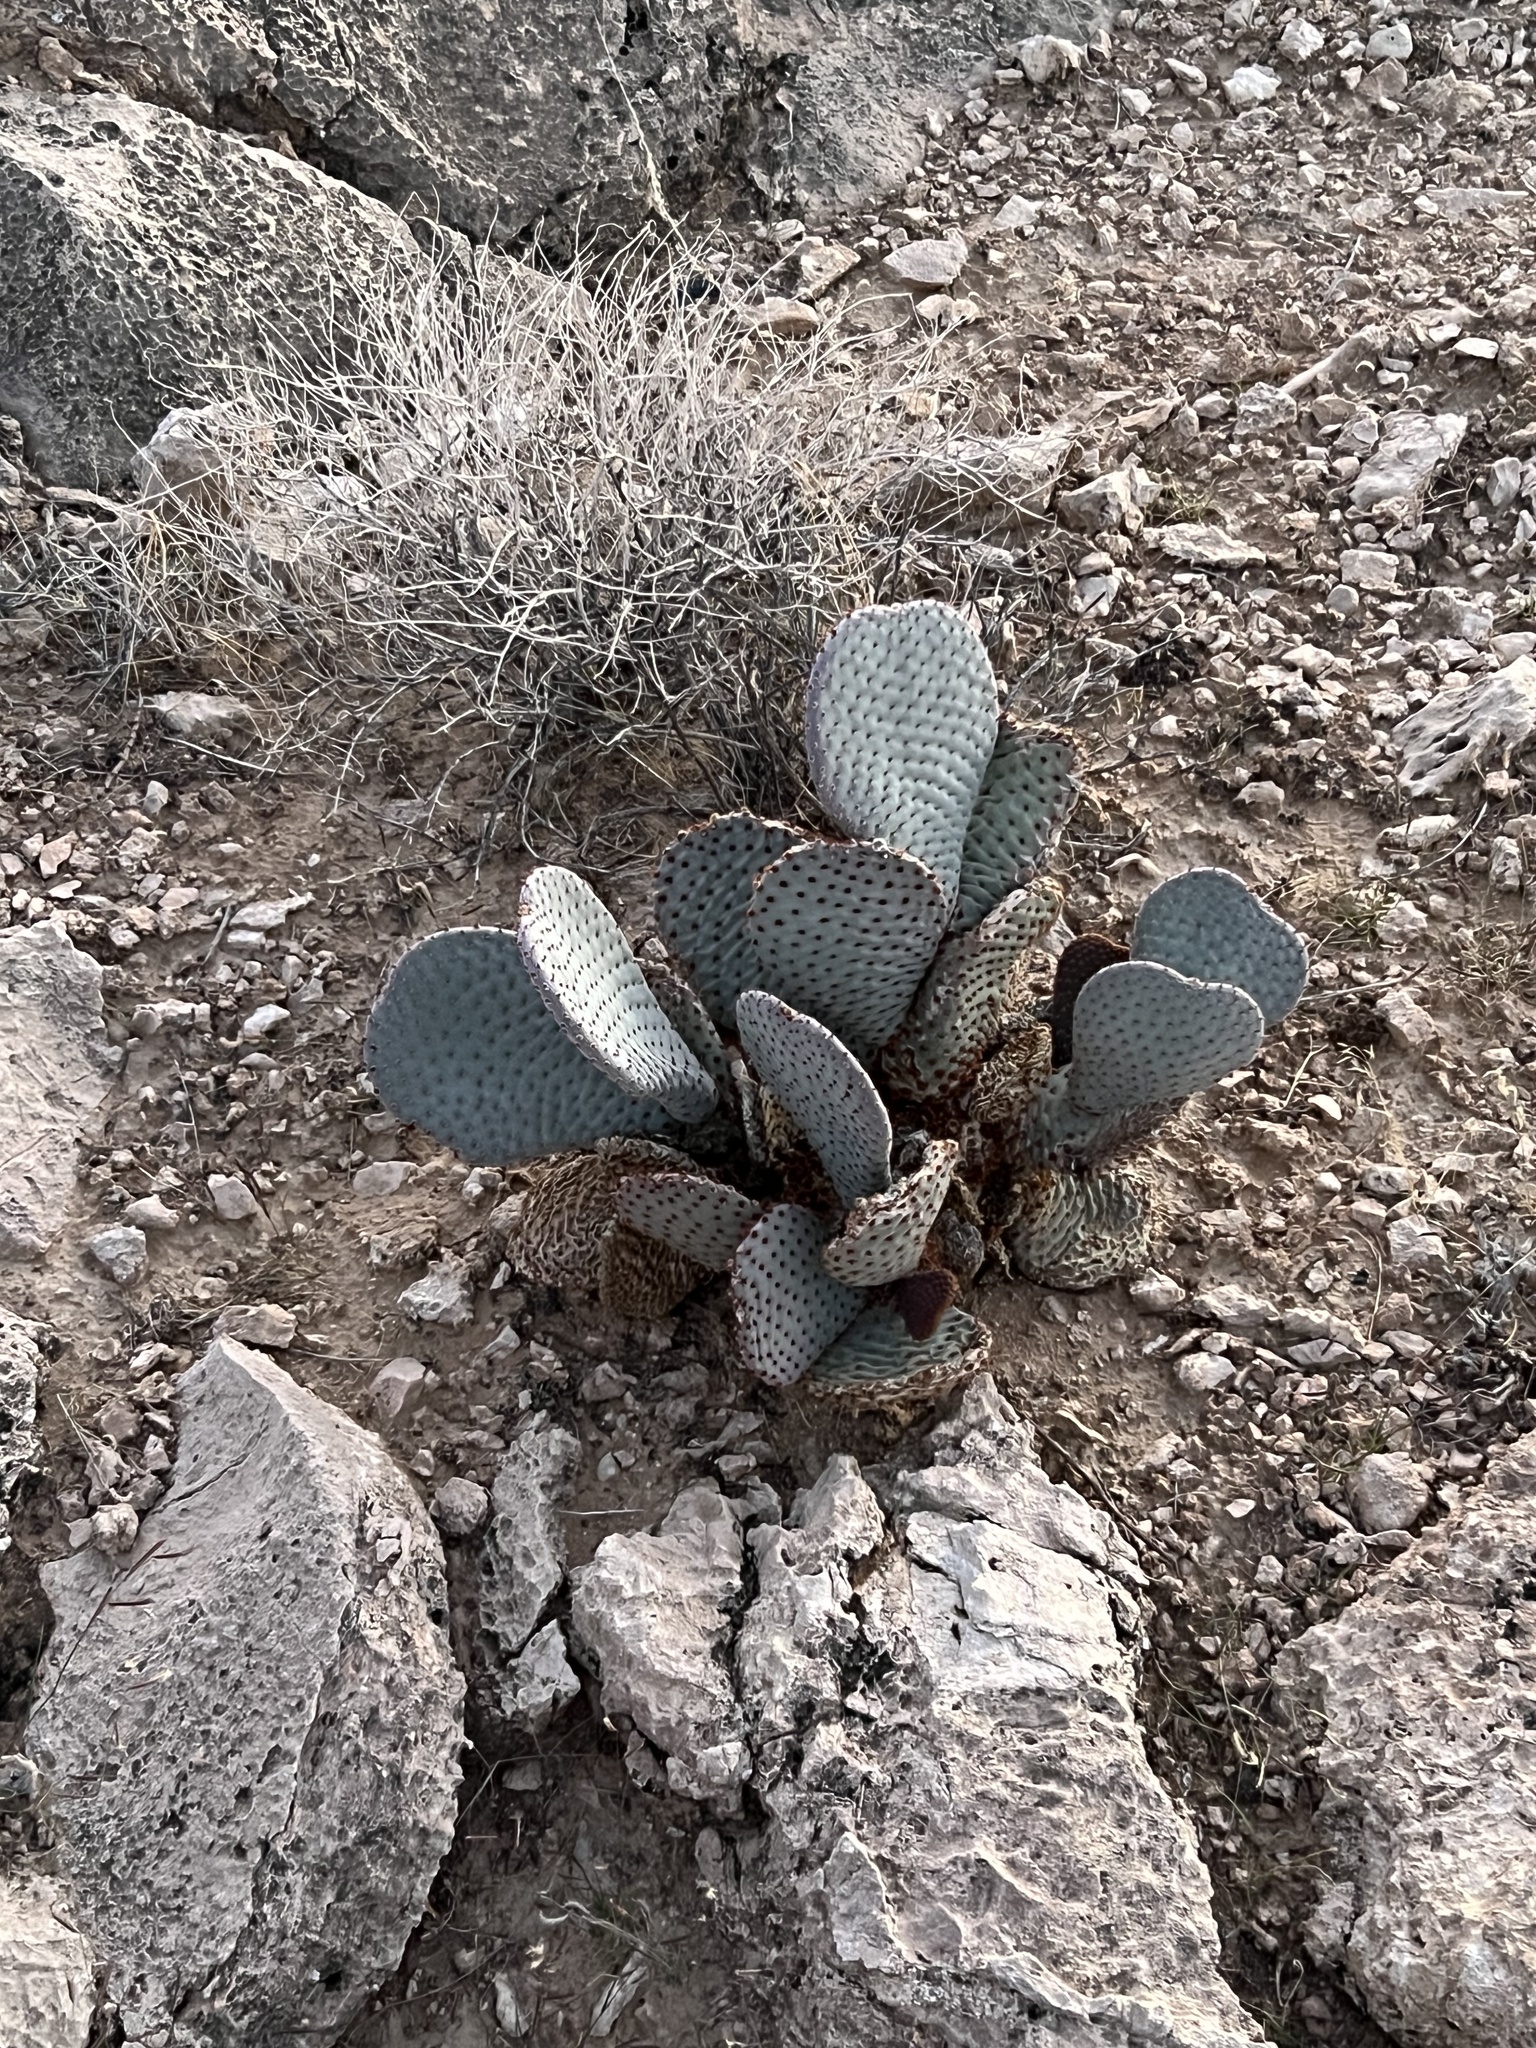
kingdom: Plantae
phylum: Tracheophyta
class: Magnoliopsida
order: Caryophyllales
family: Cactaceae
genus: Opuntia
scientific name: Opuntia basilaris
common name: Beavertail prickly-pear
